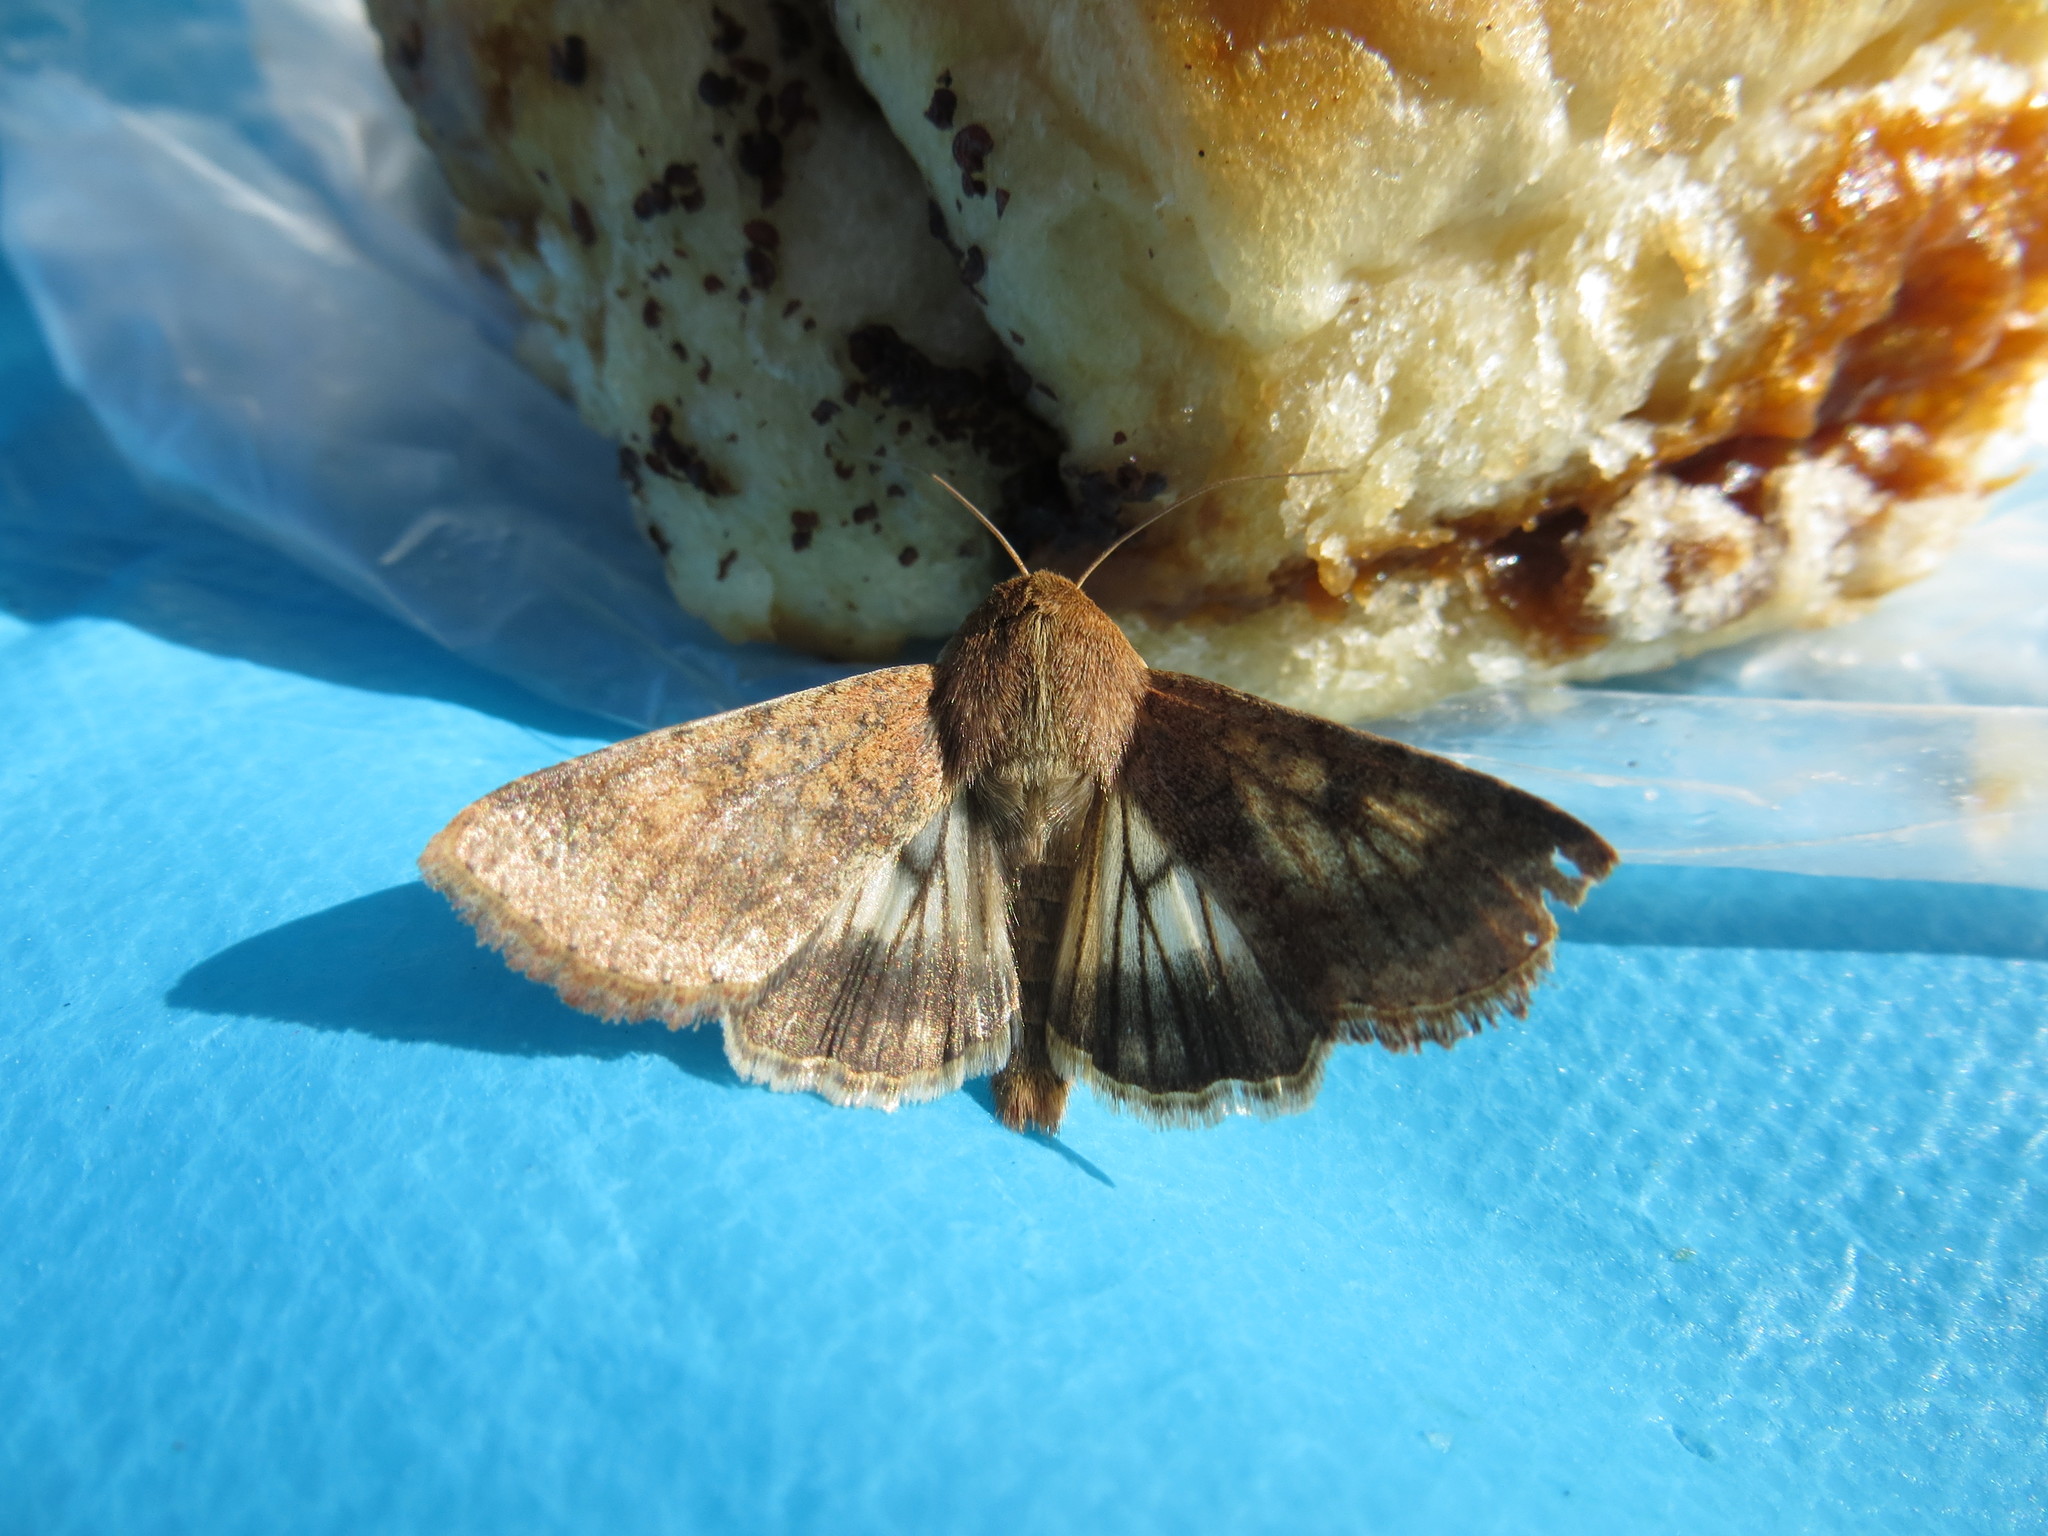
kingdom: Animalia
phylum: Arthropoda
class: Insecta
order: Lepidoptera
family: Noctuidae
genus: Helicoverpa
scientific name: Helicoverpa armigera
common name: Cotton bollworm
